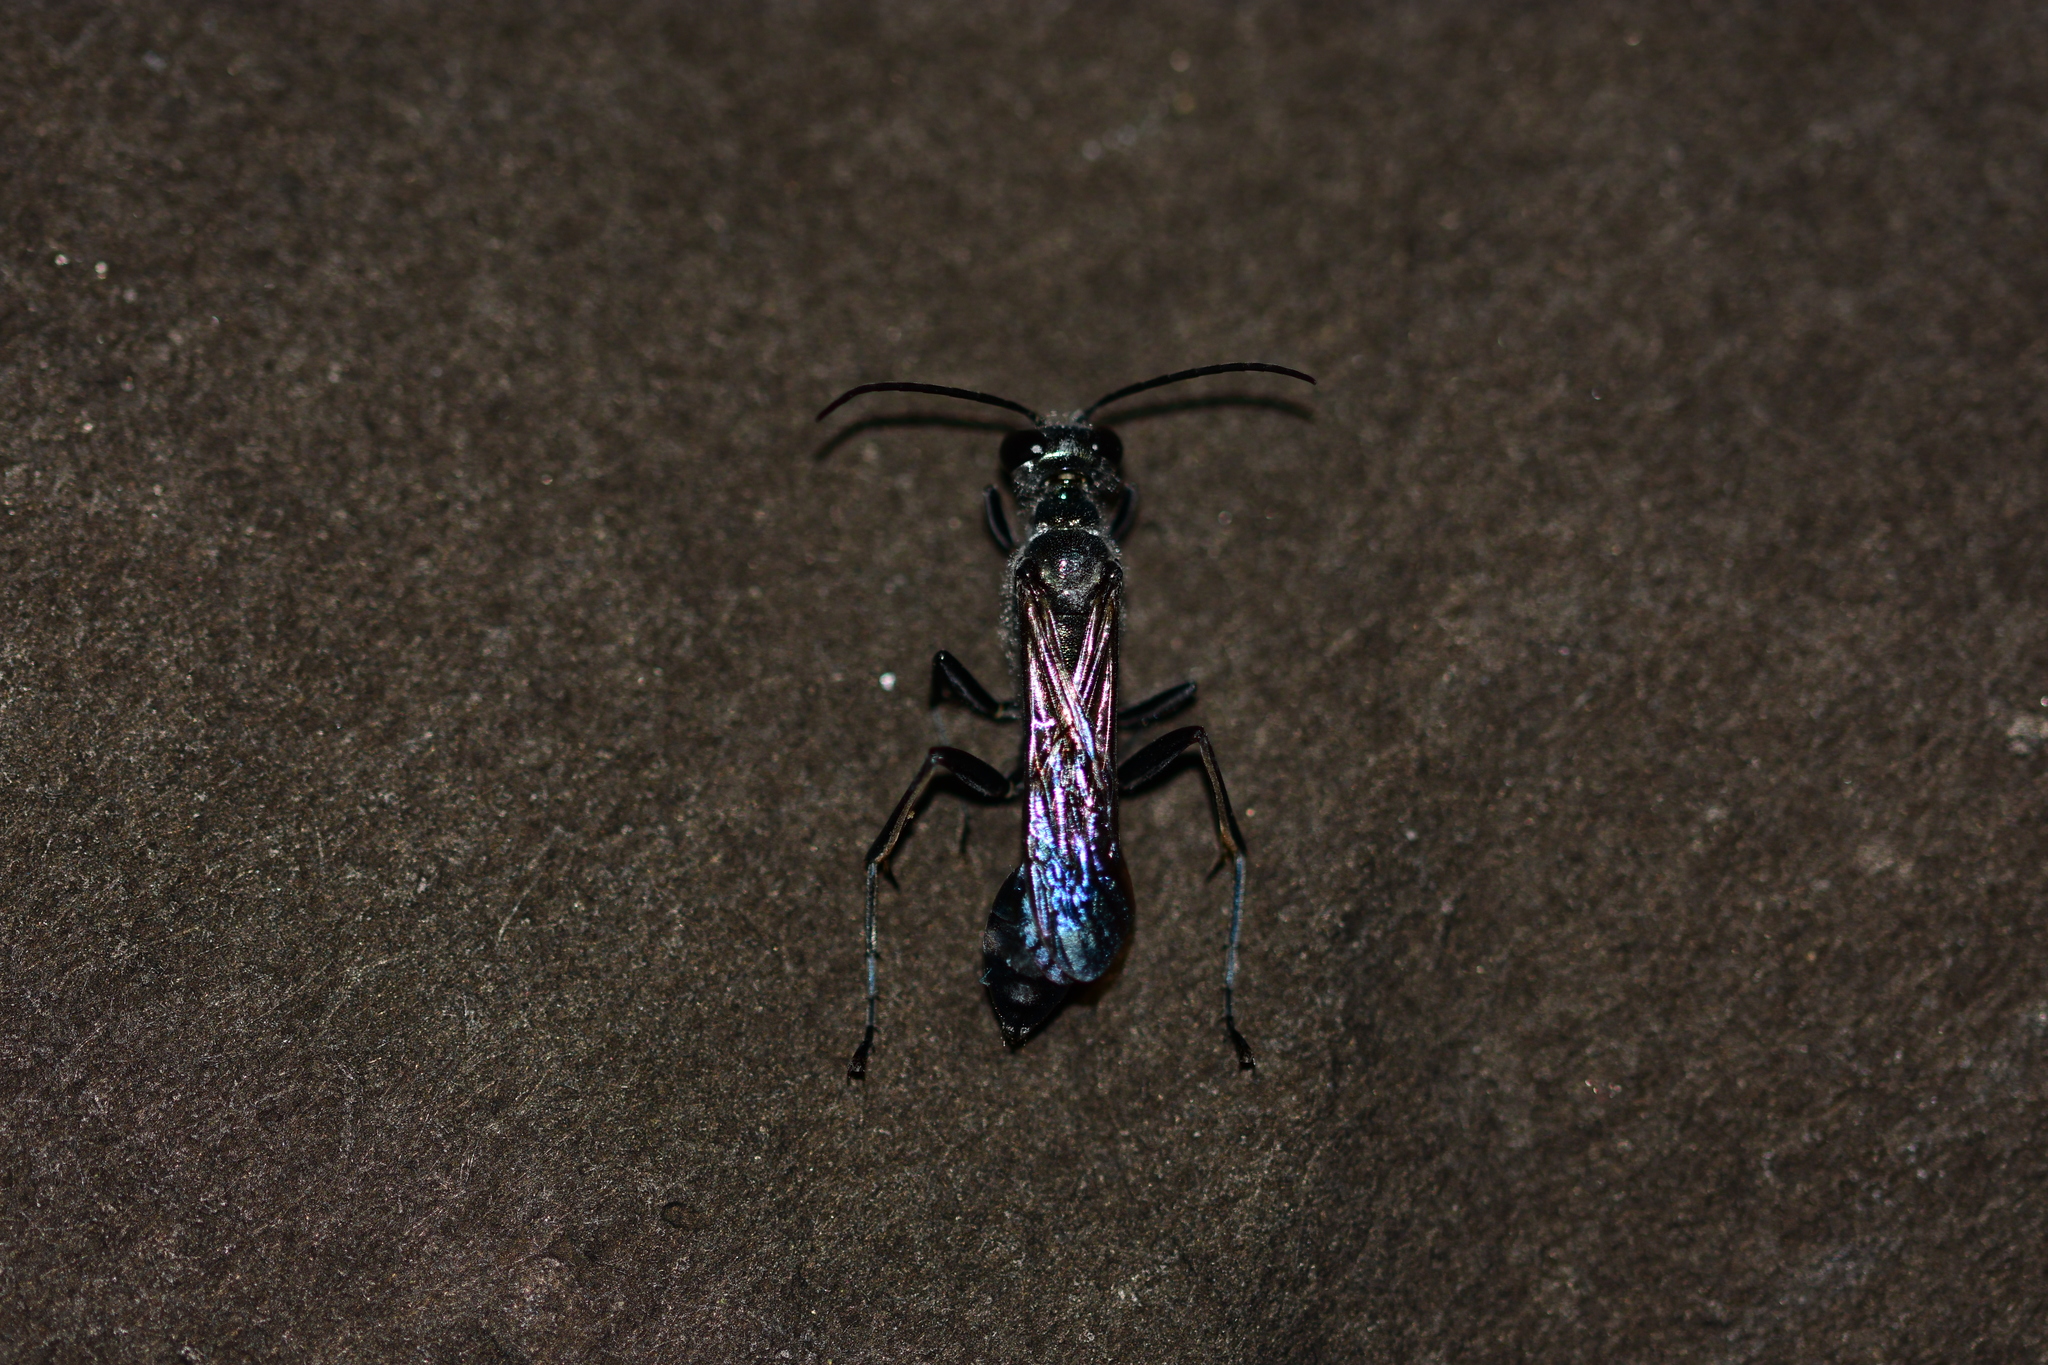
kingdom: Animalia
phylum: Arthropoda
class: Insecta
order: Hymenoptera
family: Sphecidae
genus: Chalybion
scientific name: Chalybion bengalense
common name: Mud dauber
